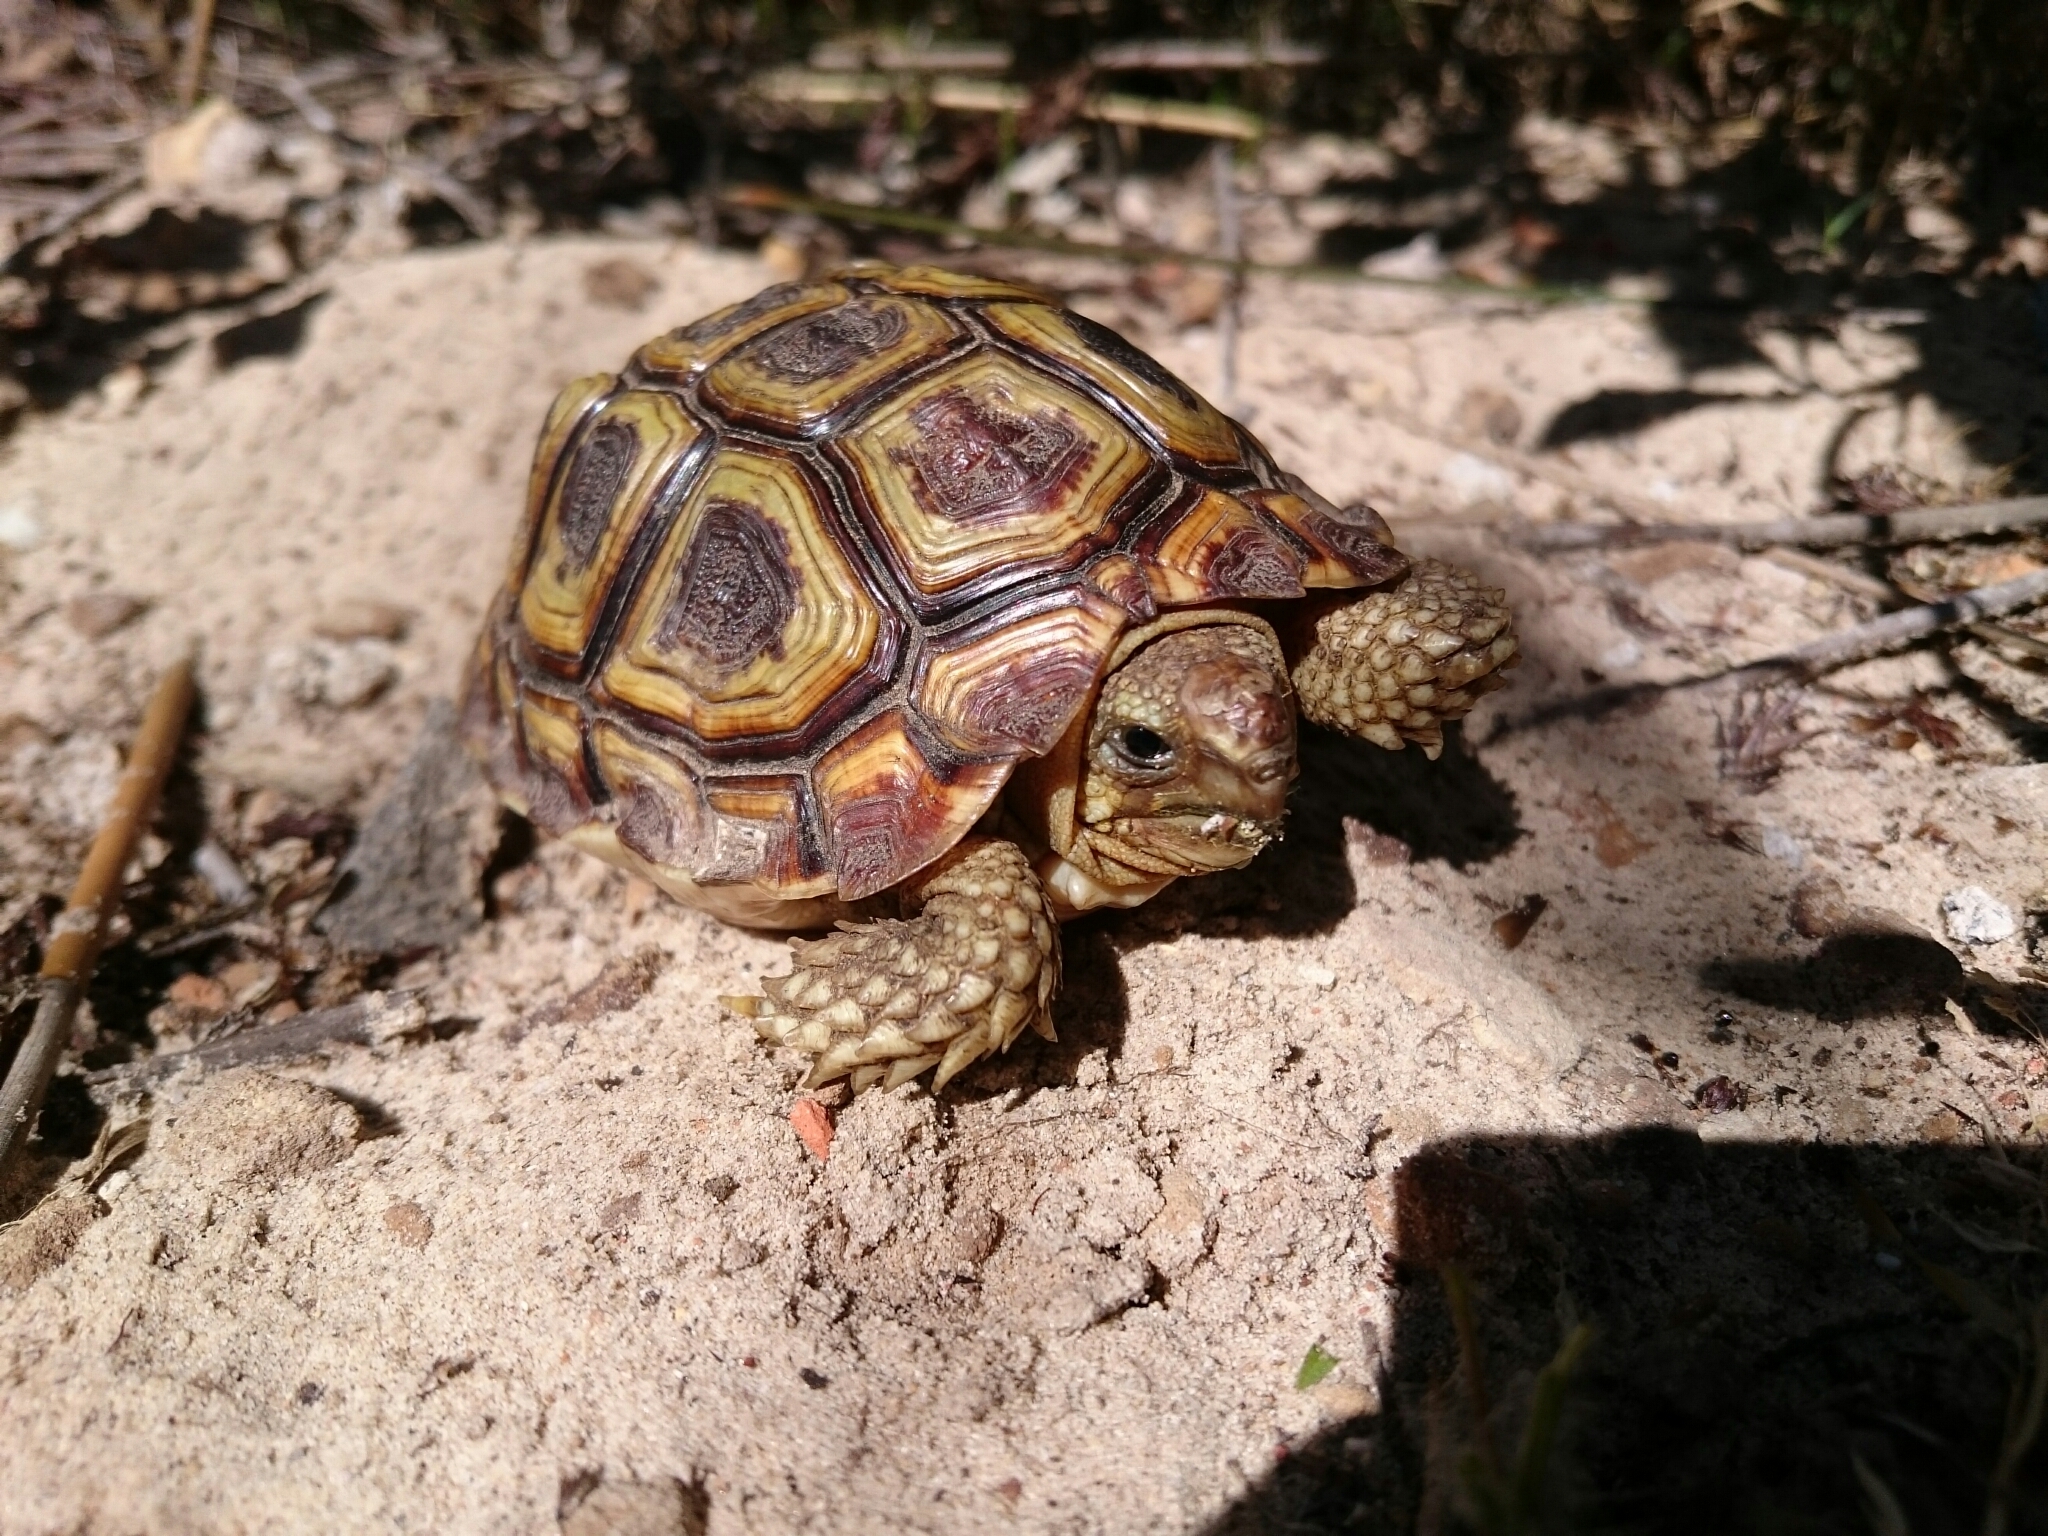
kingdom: Animalia
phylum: Chordata
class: Testudines
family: Testudinidae
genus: Homopus
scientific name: Homopus areolatus
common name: Parrot-beaked tortoise
